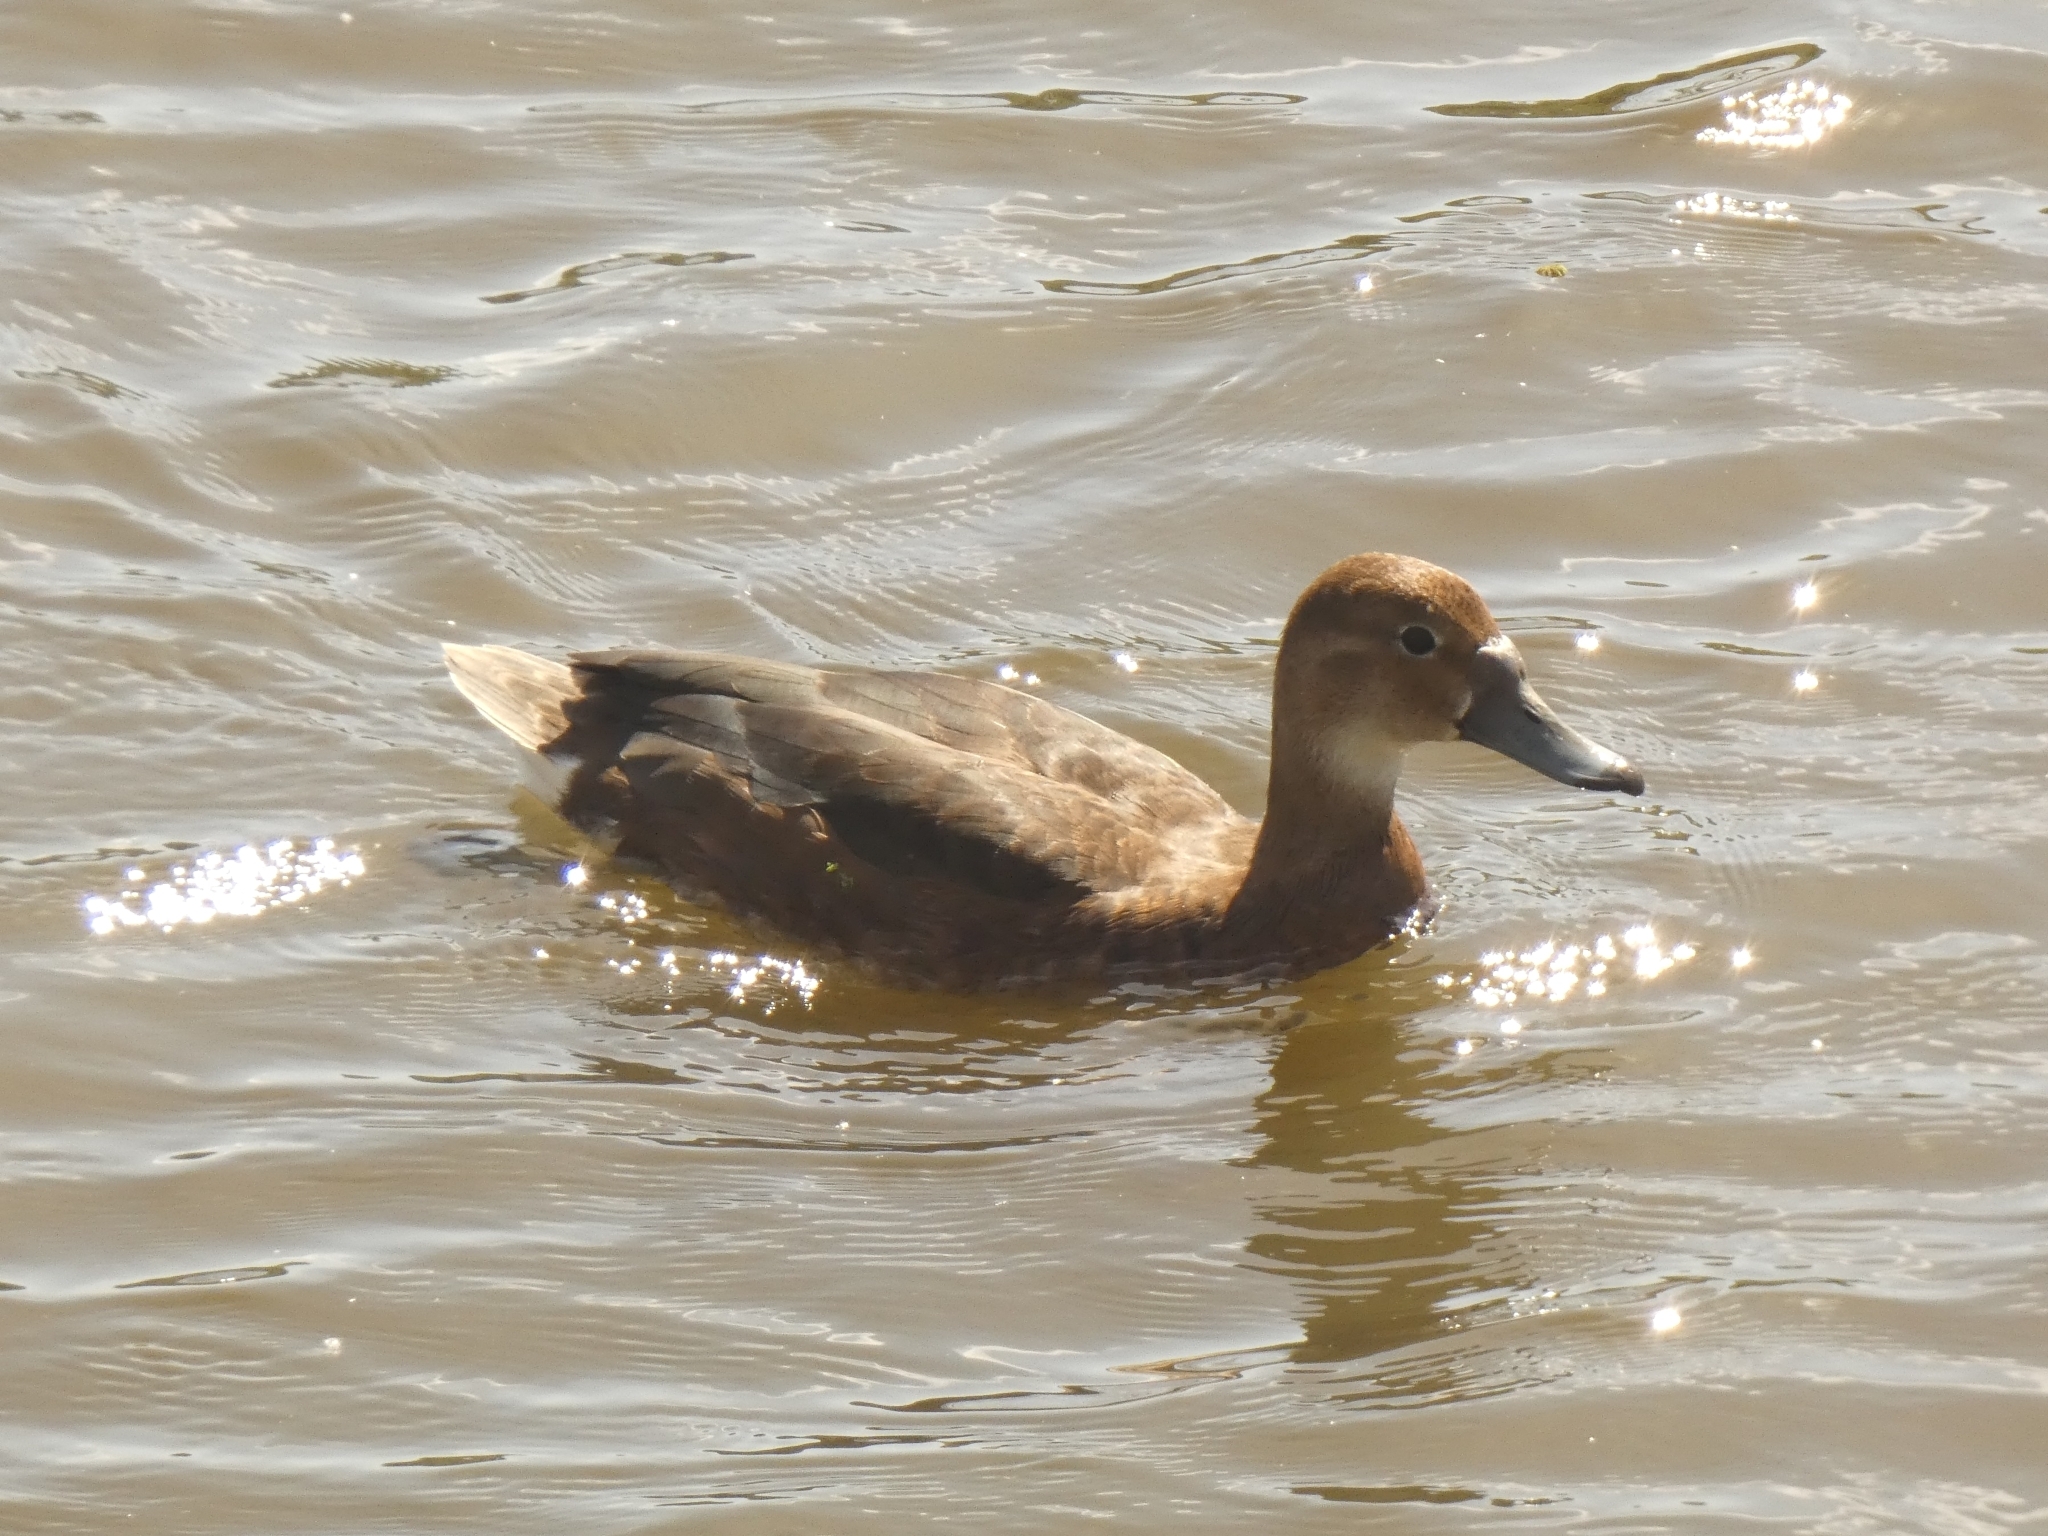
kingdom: Animalia
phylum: Chordata
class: Aves
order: Anseriformes
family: Anatidae
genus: Netta
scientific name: Netta peposaca
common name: Rosy-billed pochard
